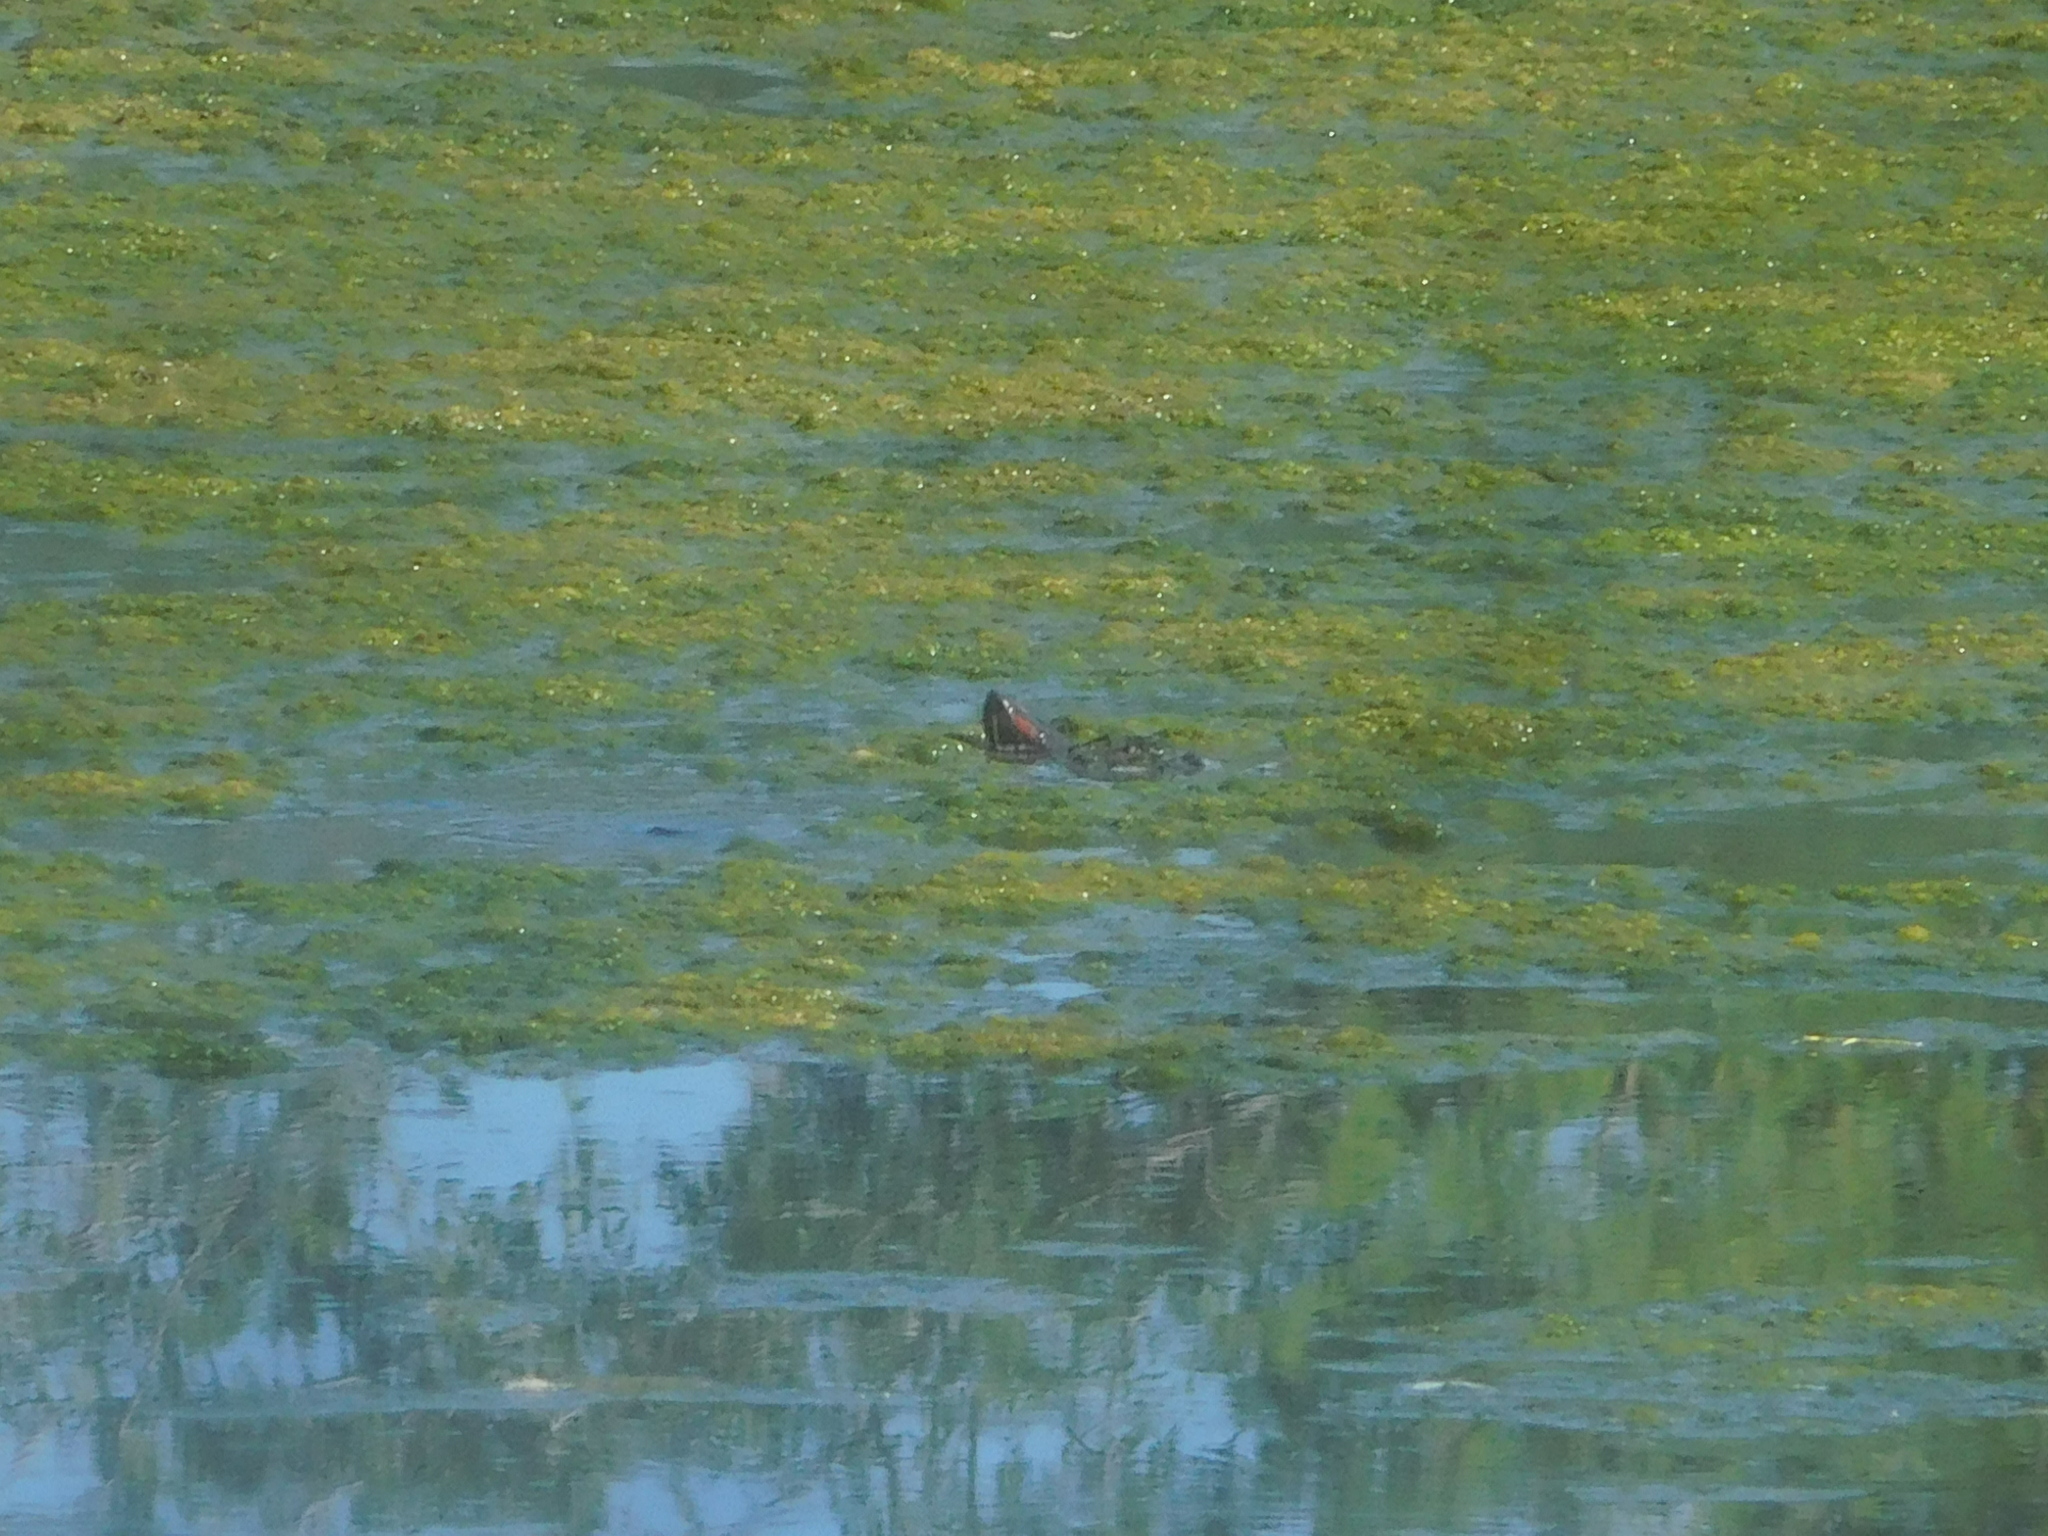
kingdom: Animalia
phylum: Chordata
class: Testudines
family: Emydidae
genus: Trachemys
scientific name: Trachemys scripta
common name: Slider
